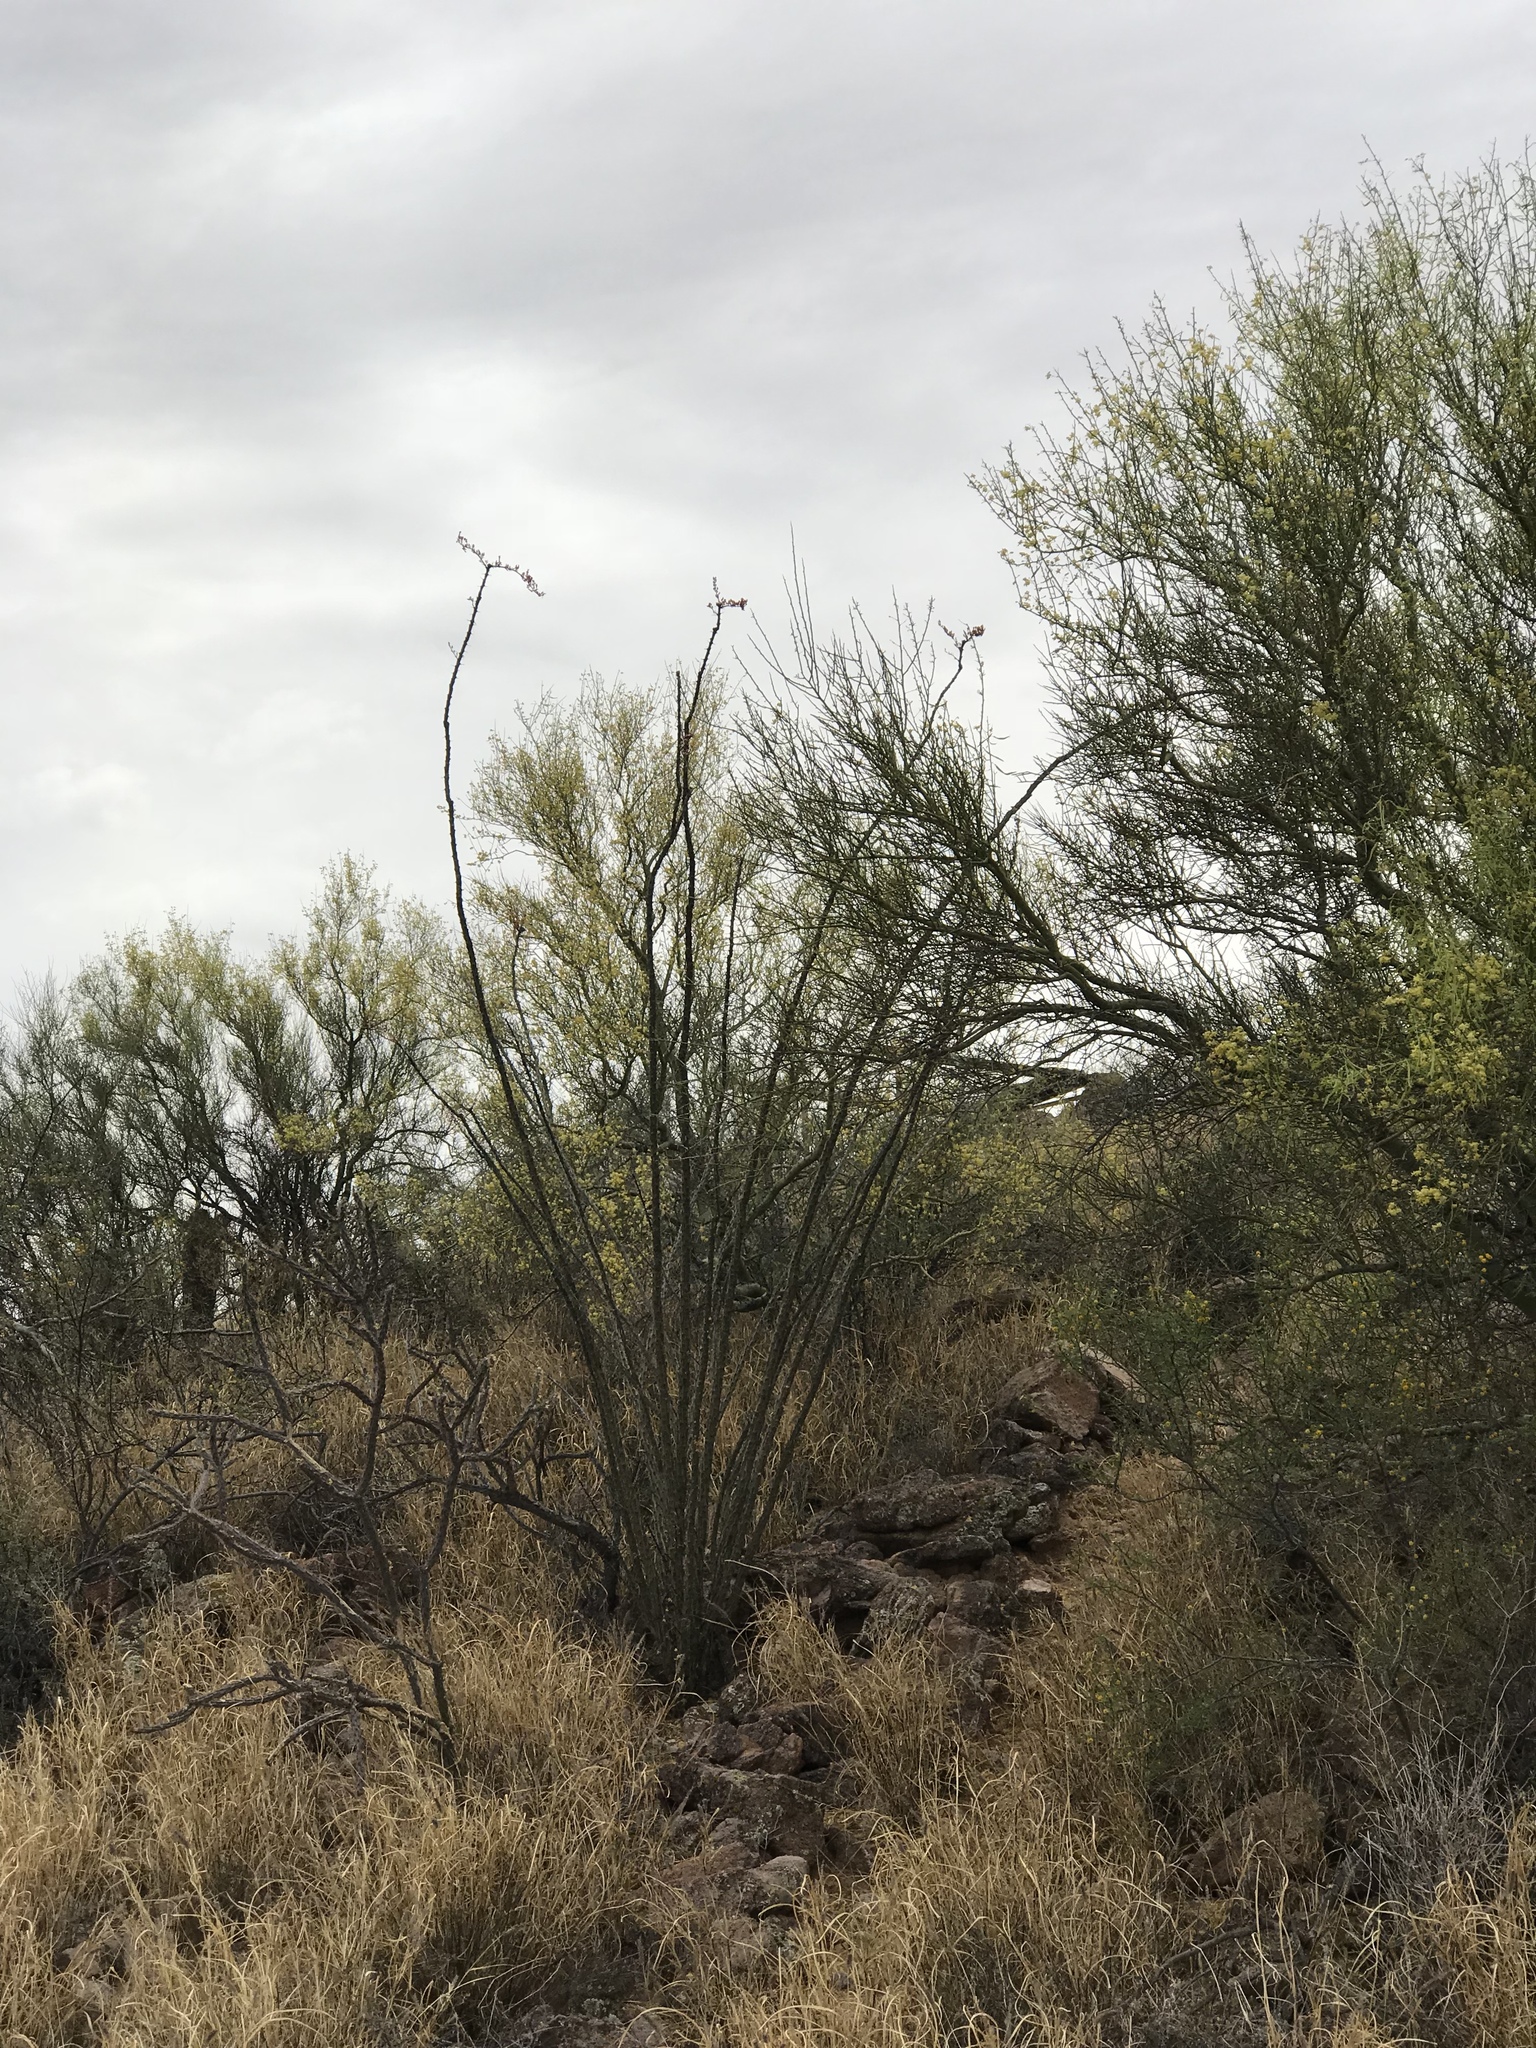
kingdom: Plantae
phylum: Tracheophyta
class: Magnoliopsida
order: Ericales
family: Fouquieriaceae
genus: Fouquieria
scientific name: Fouquieria splendens
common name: Vine-cactus
